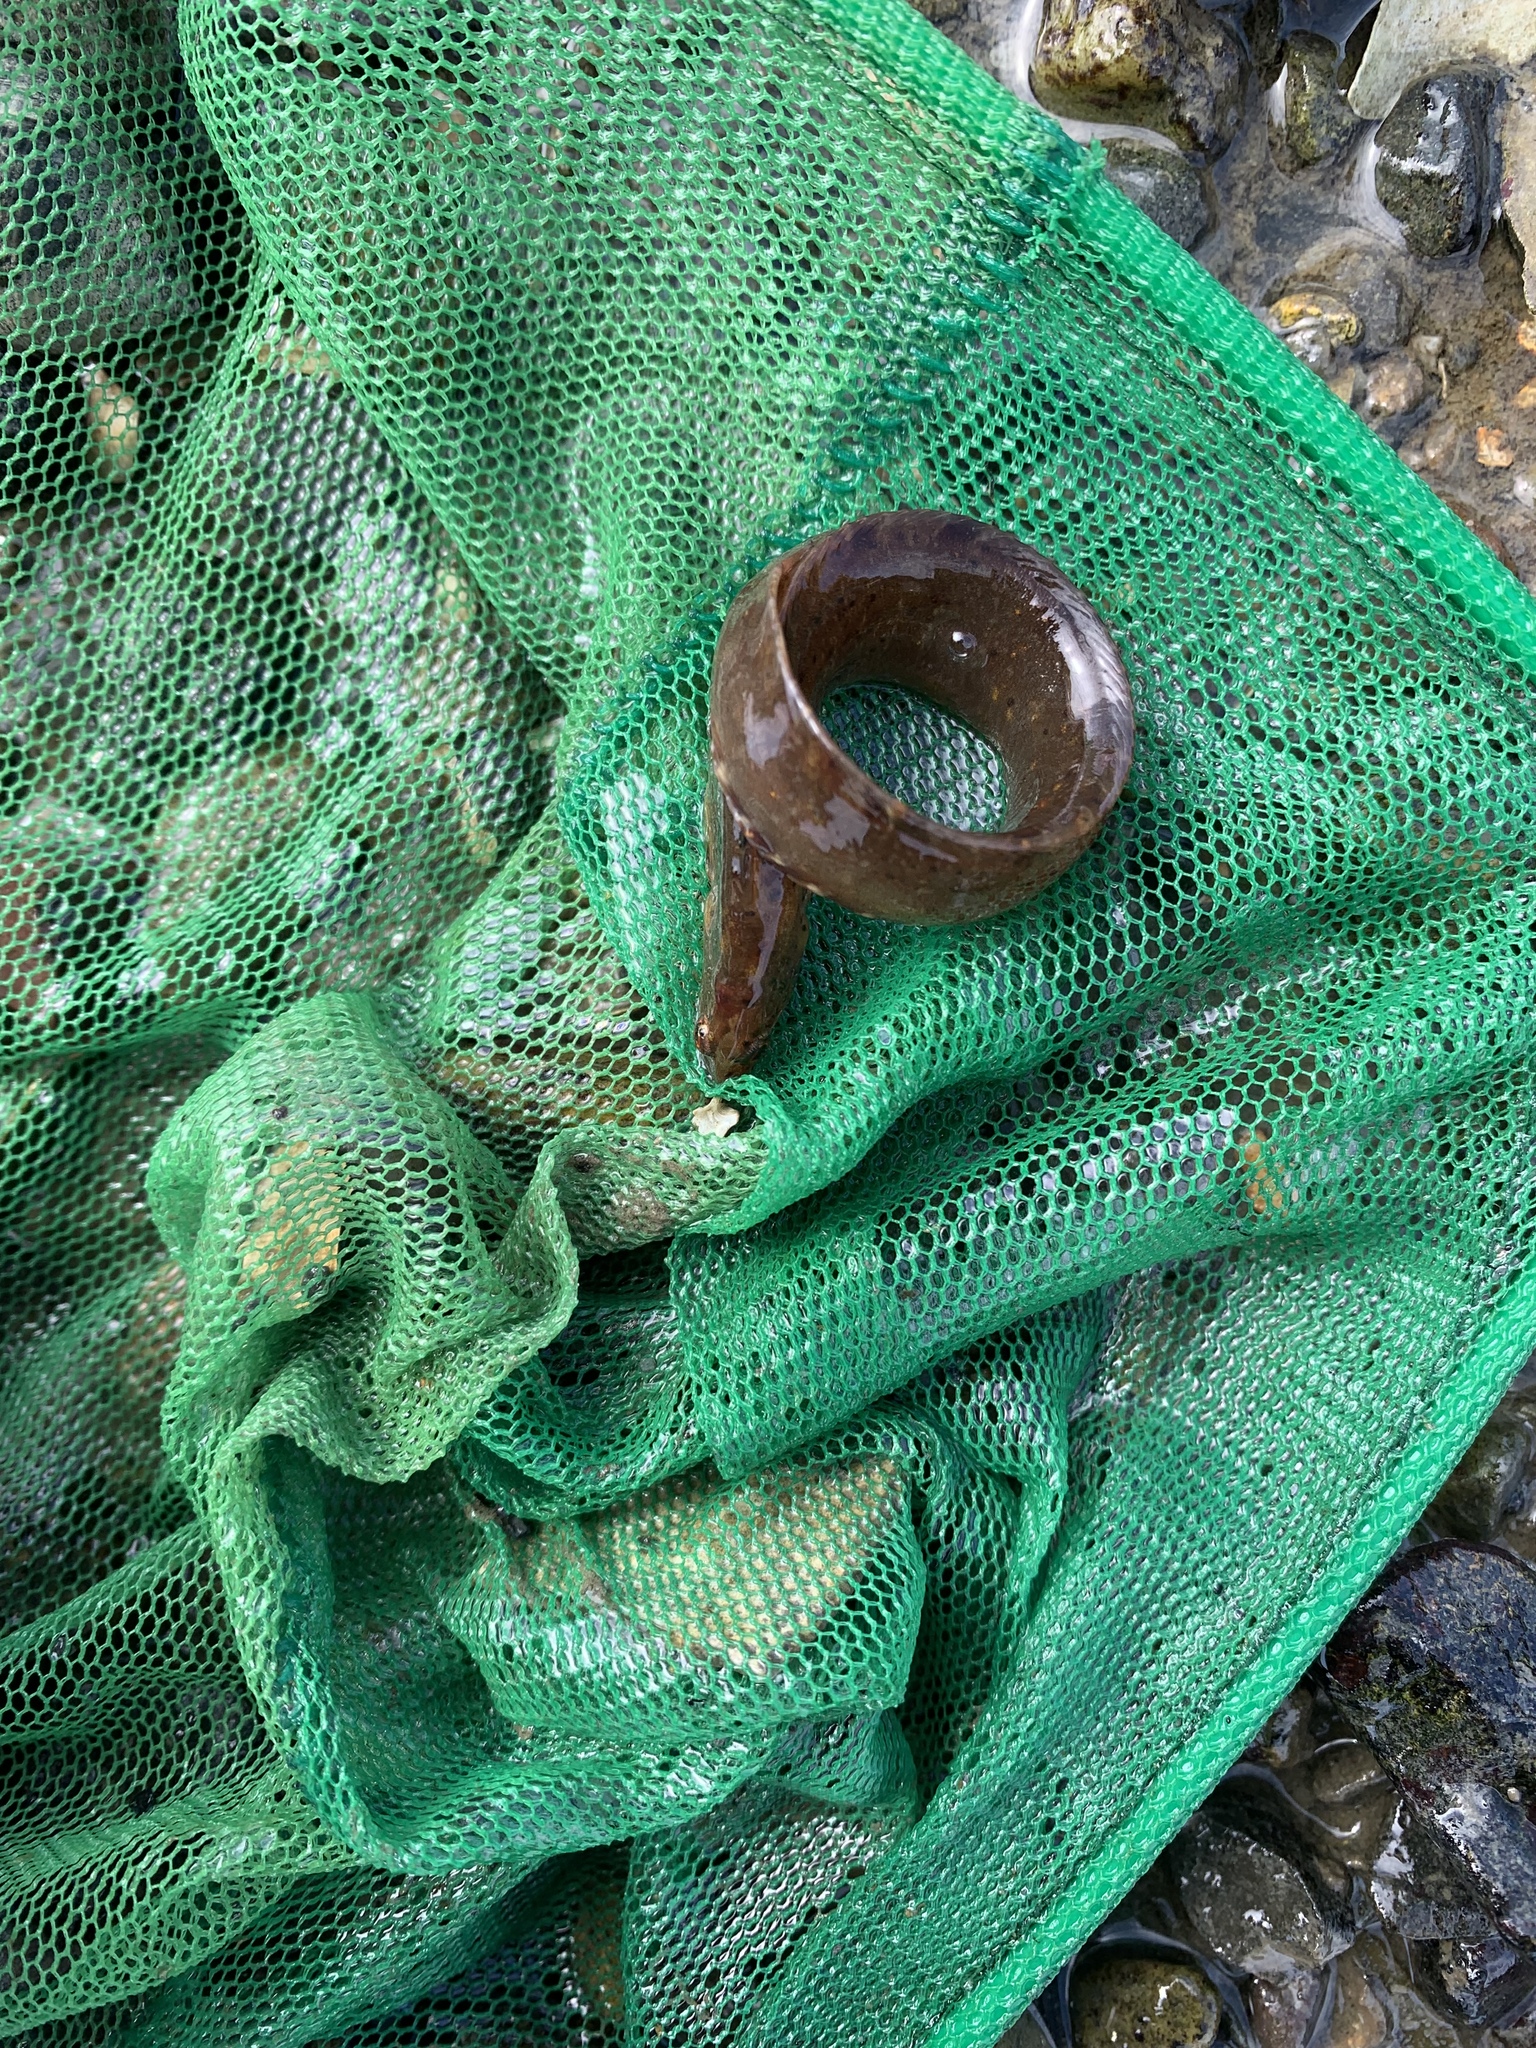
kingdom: Animalia
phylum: Chordata
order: Perciformes
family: Pholidae
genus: Pholis
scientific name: Pholis gunnellus
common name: Butterfish
